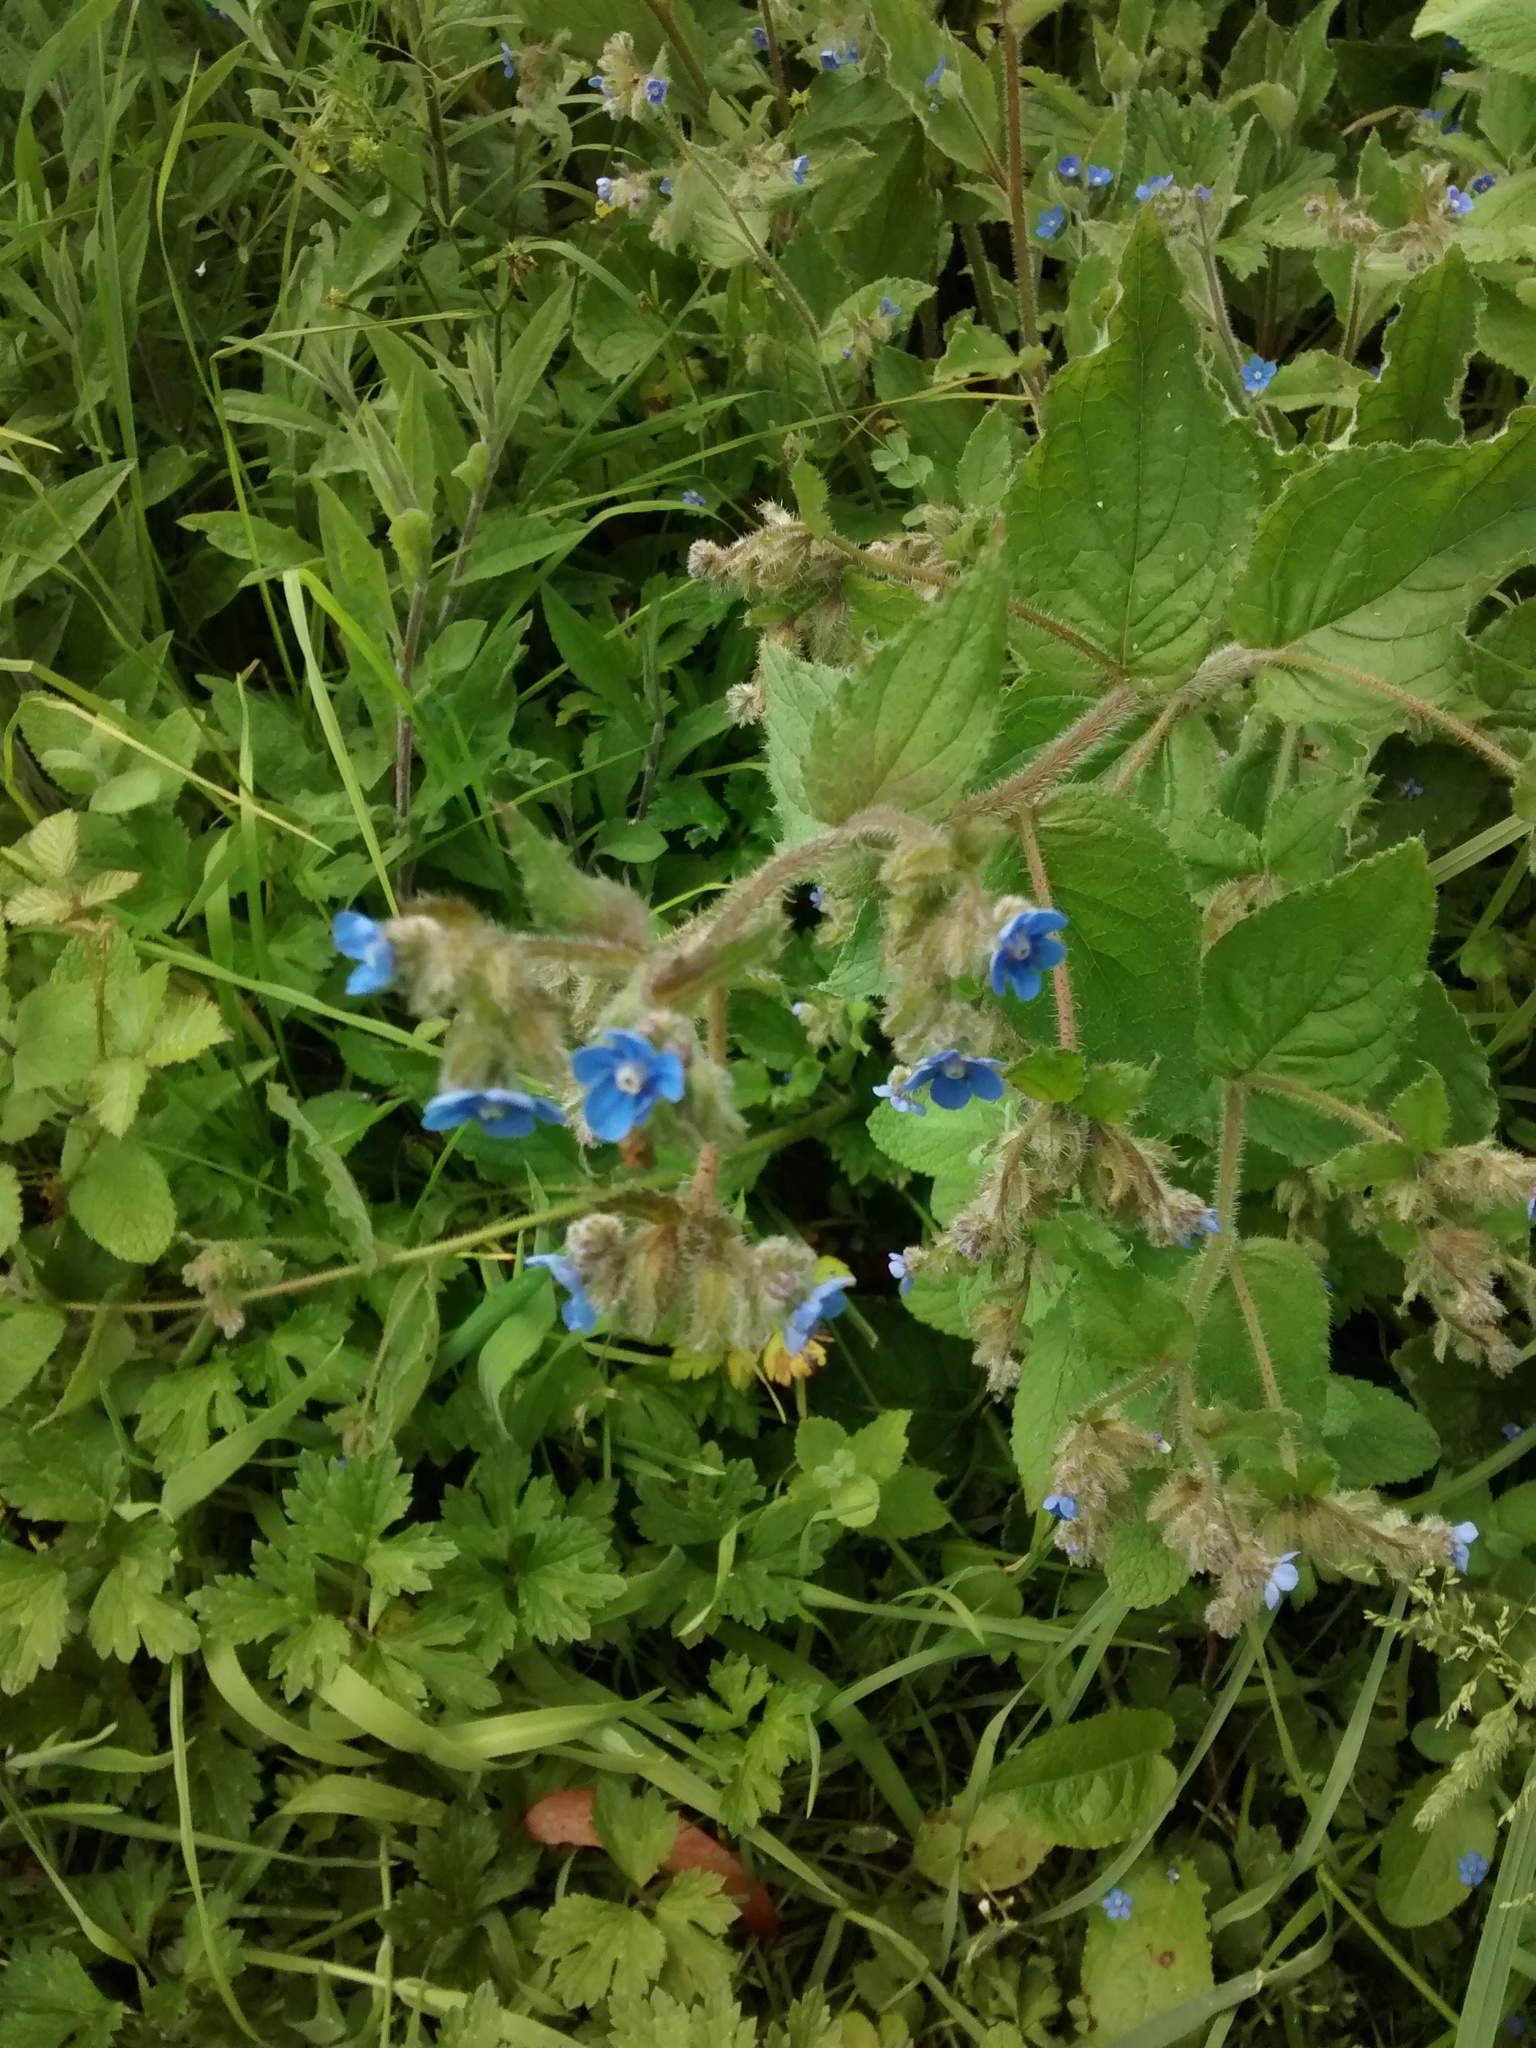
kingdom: Plantae
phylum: Tracheophyta
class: Magnoliopsida
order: Boraginales
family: Boraginaceae
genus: Pentaglottis
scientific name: Pentaglottis sempervirens
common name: Green alkanet
